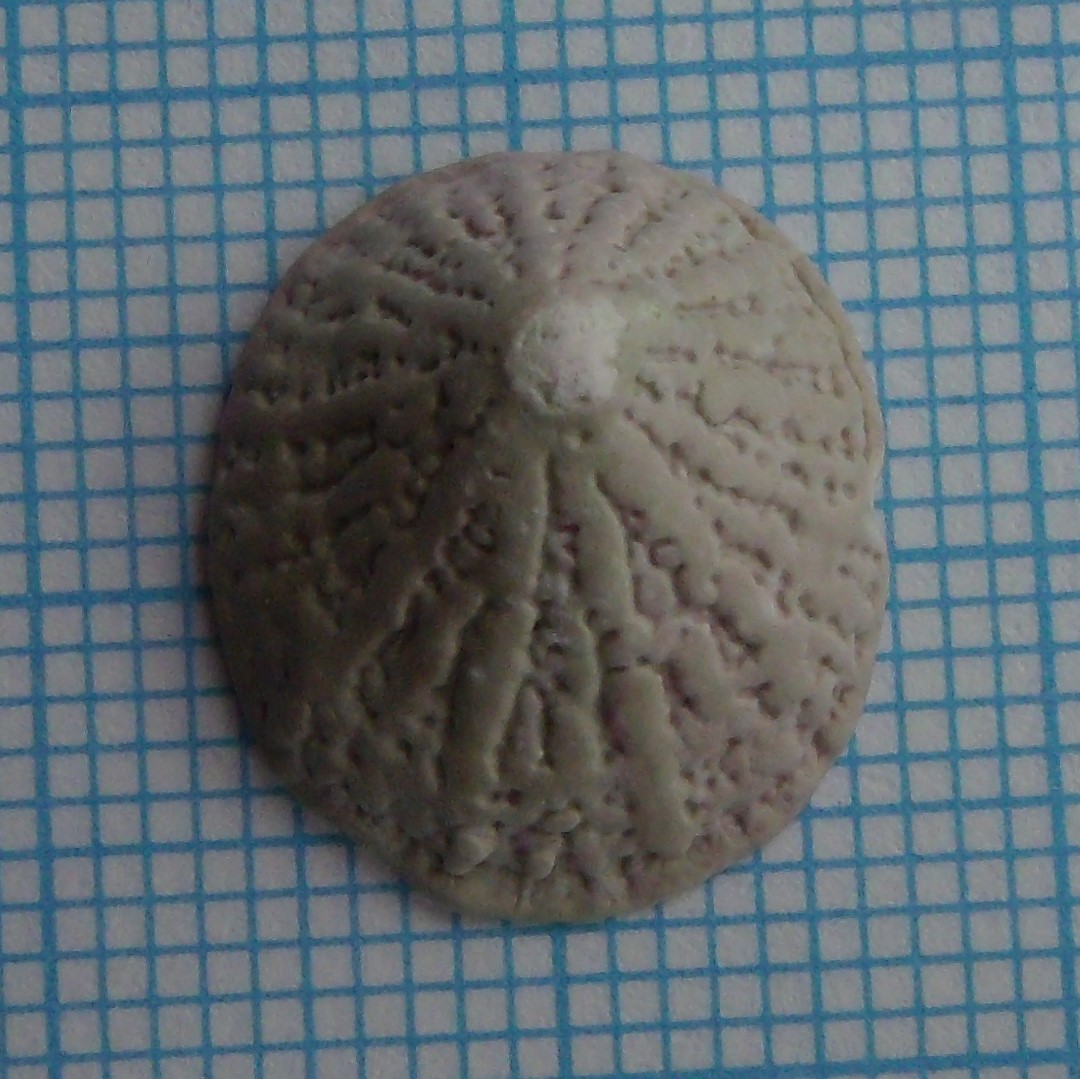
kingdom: Animalia
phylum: Mollusca
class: Gastropoda
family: Lottiidae
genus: Radiacmea
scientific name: Radiacmea inconspicua
